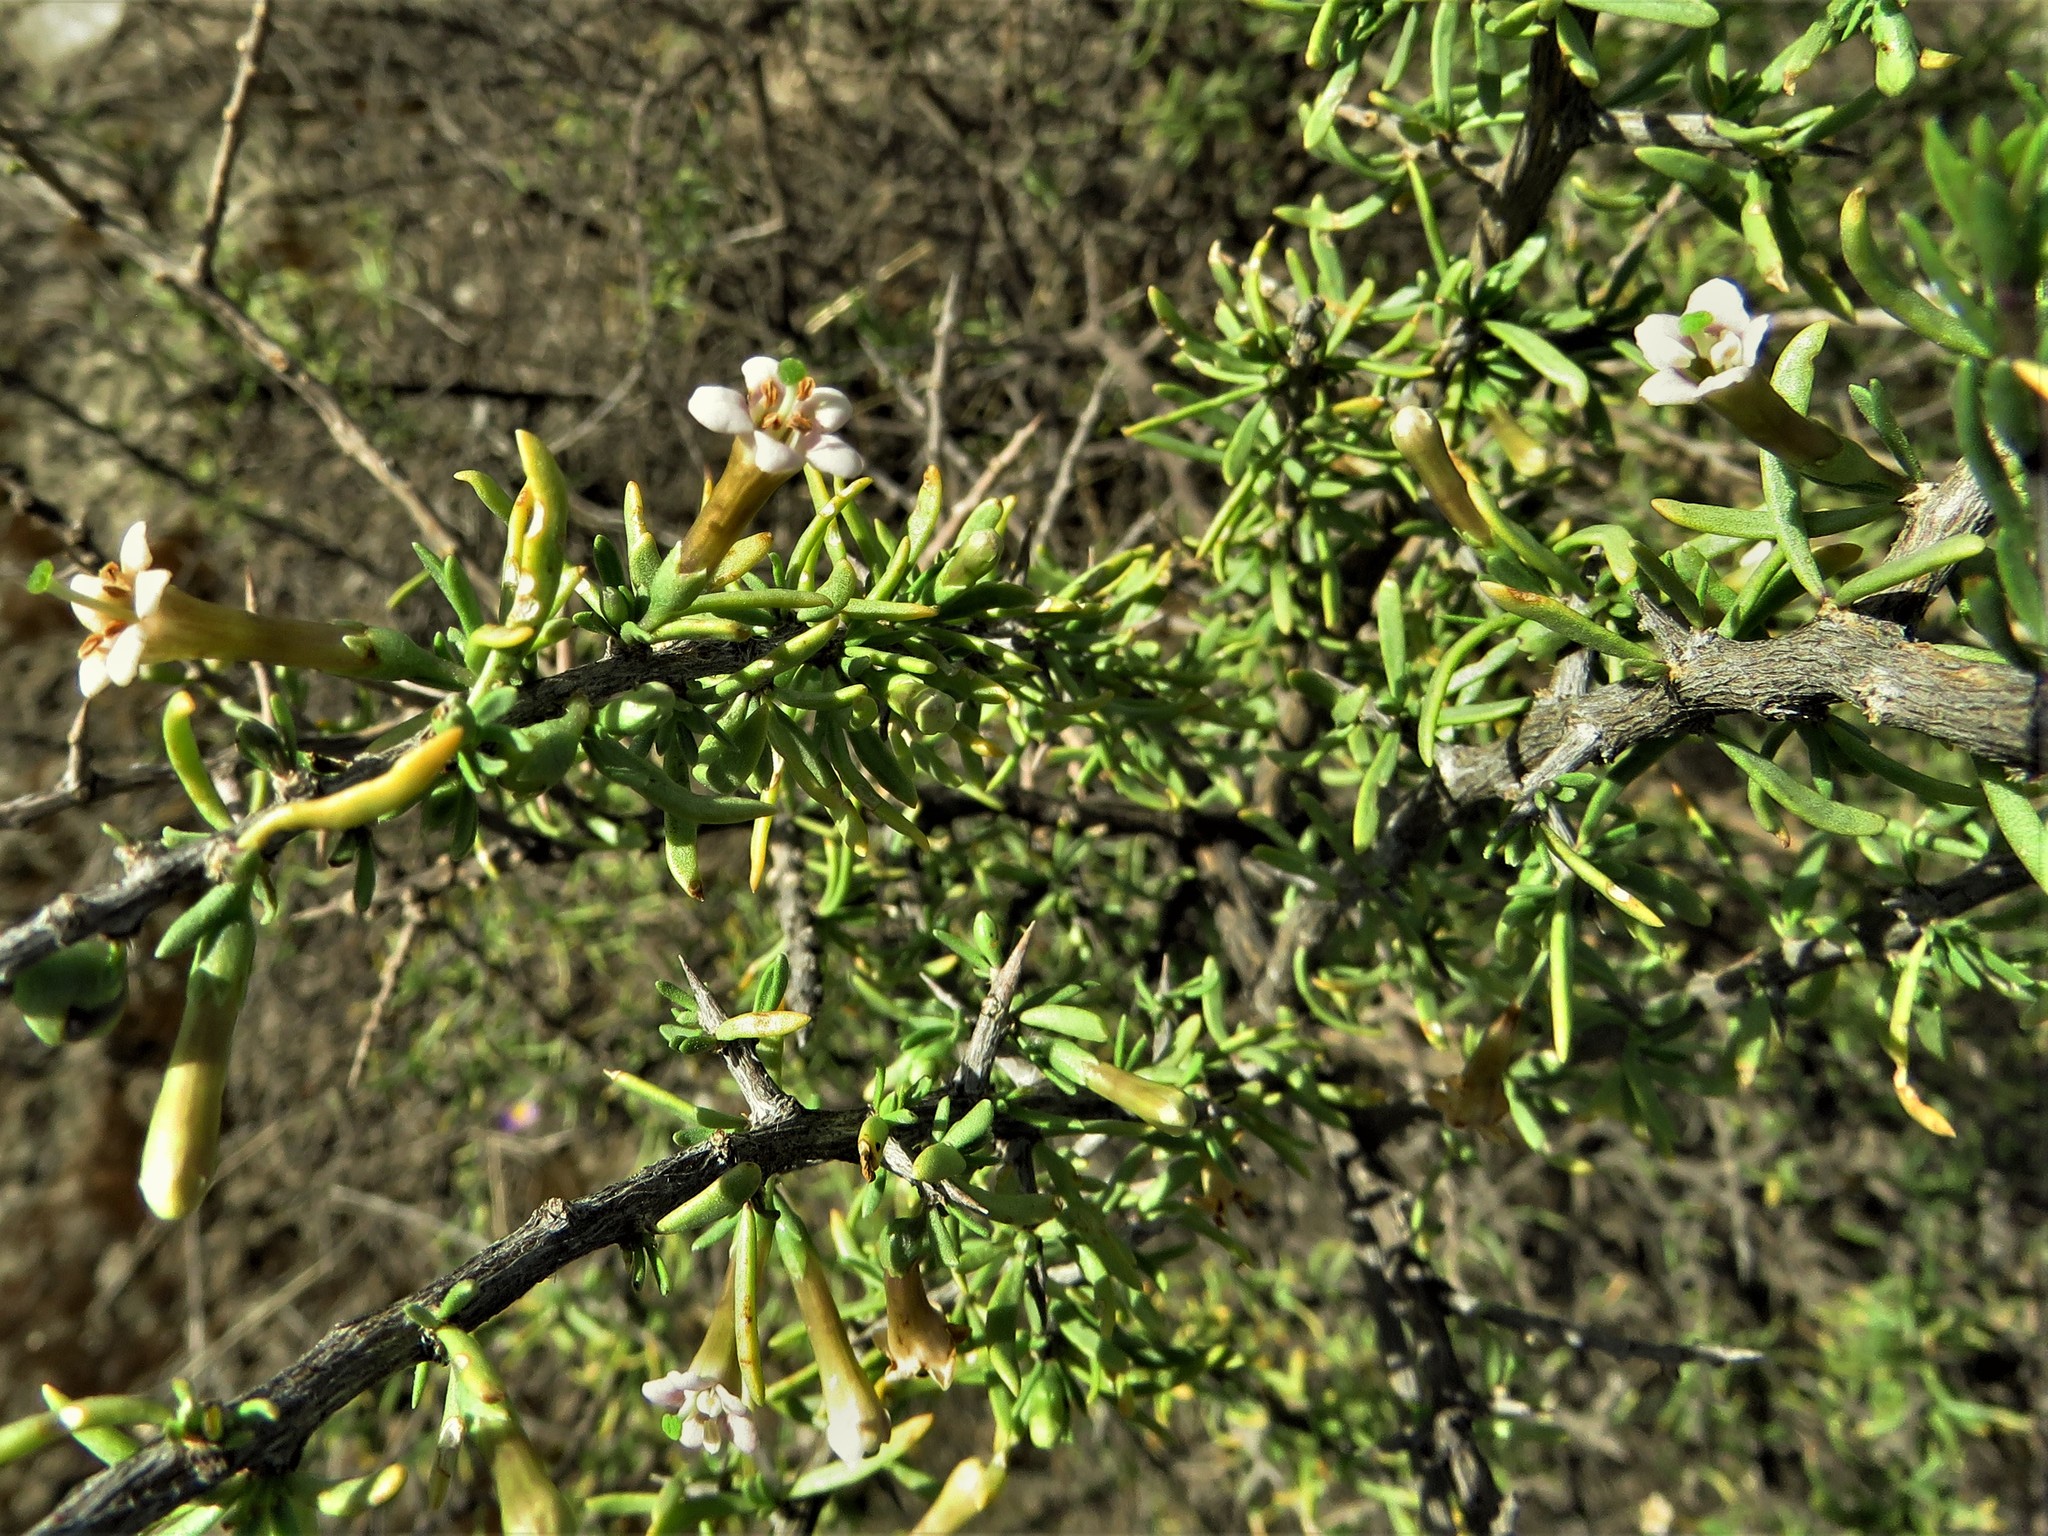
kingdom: Plantae
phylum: Tracheophyta
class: Magnoliopsida
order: Solanales
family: Solanaceae
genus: Lycium
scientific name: Lycium berlandieri
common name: Berlandier wolfberry
